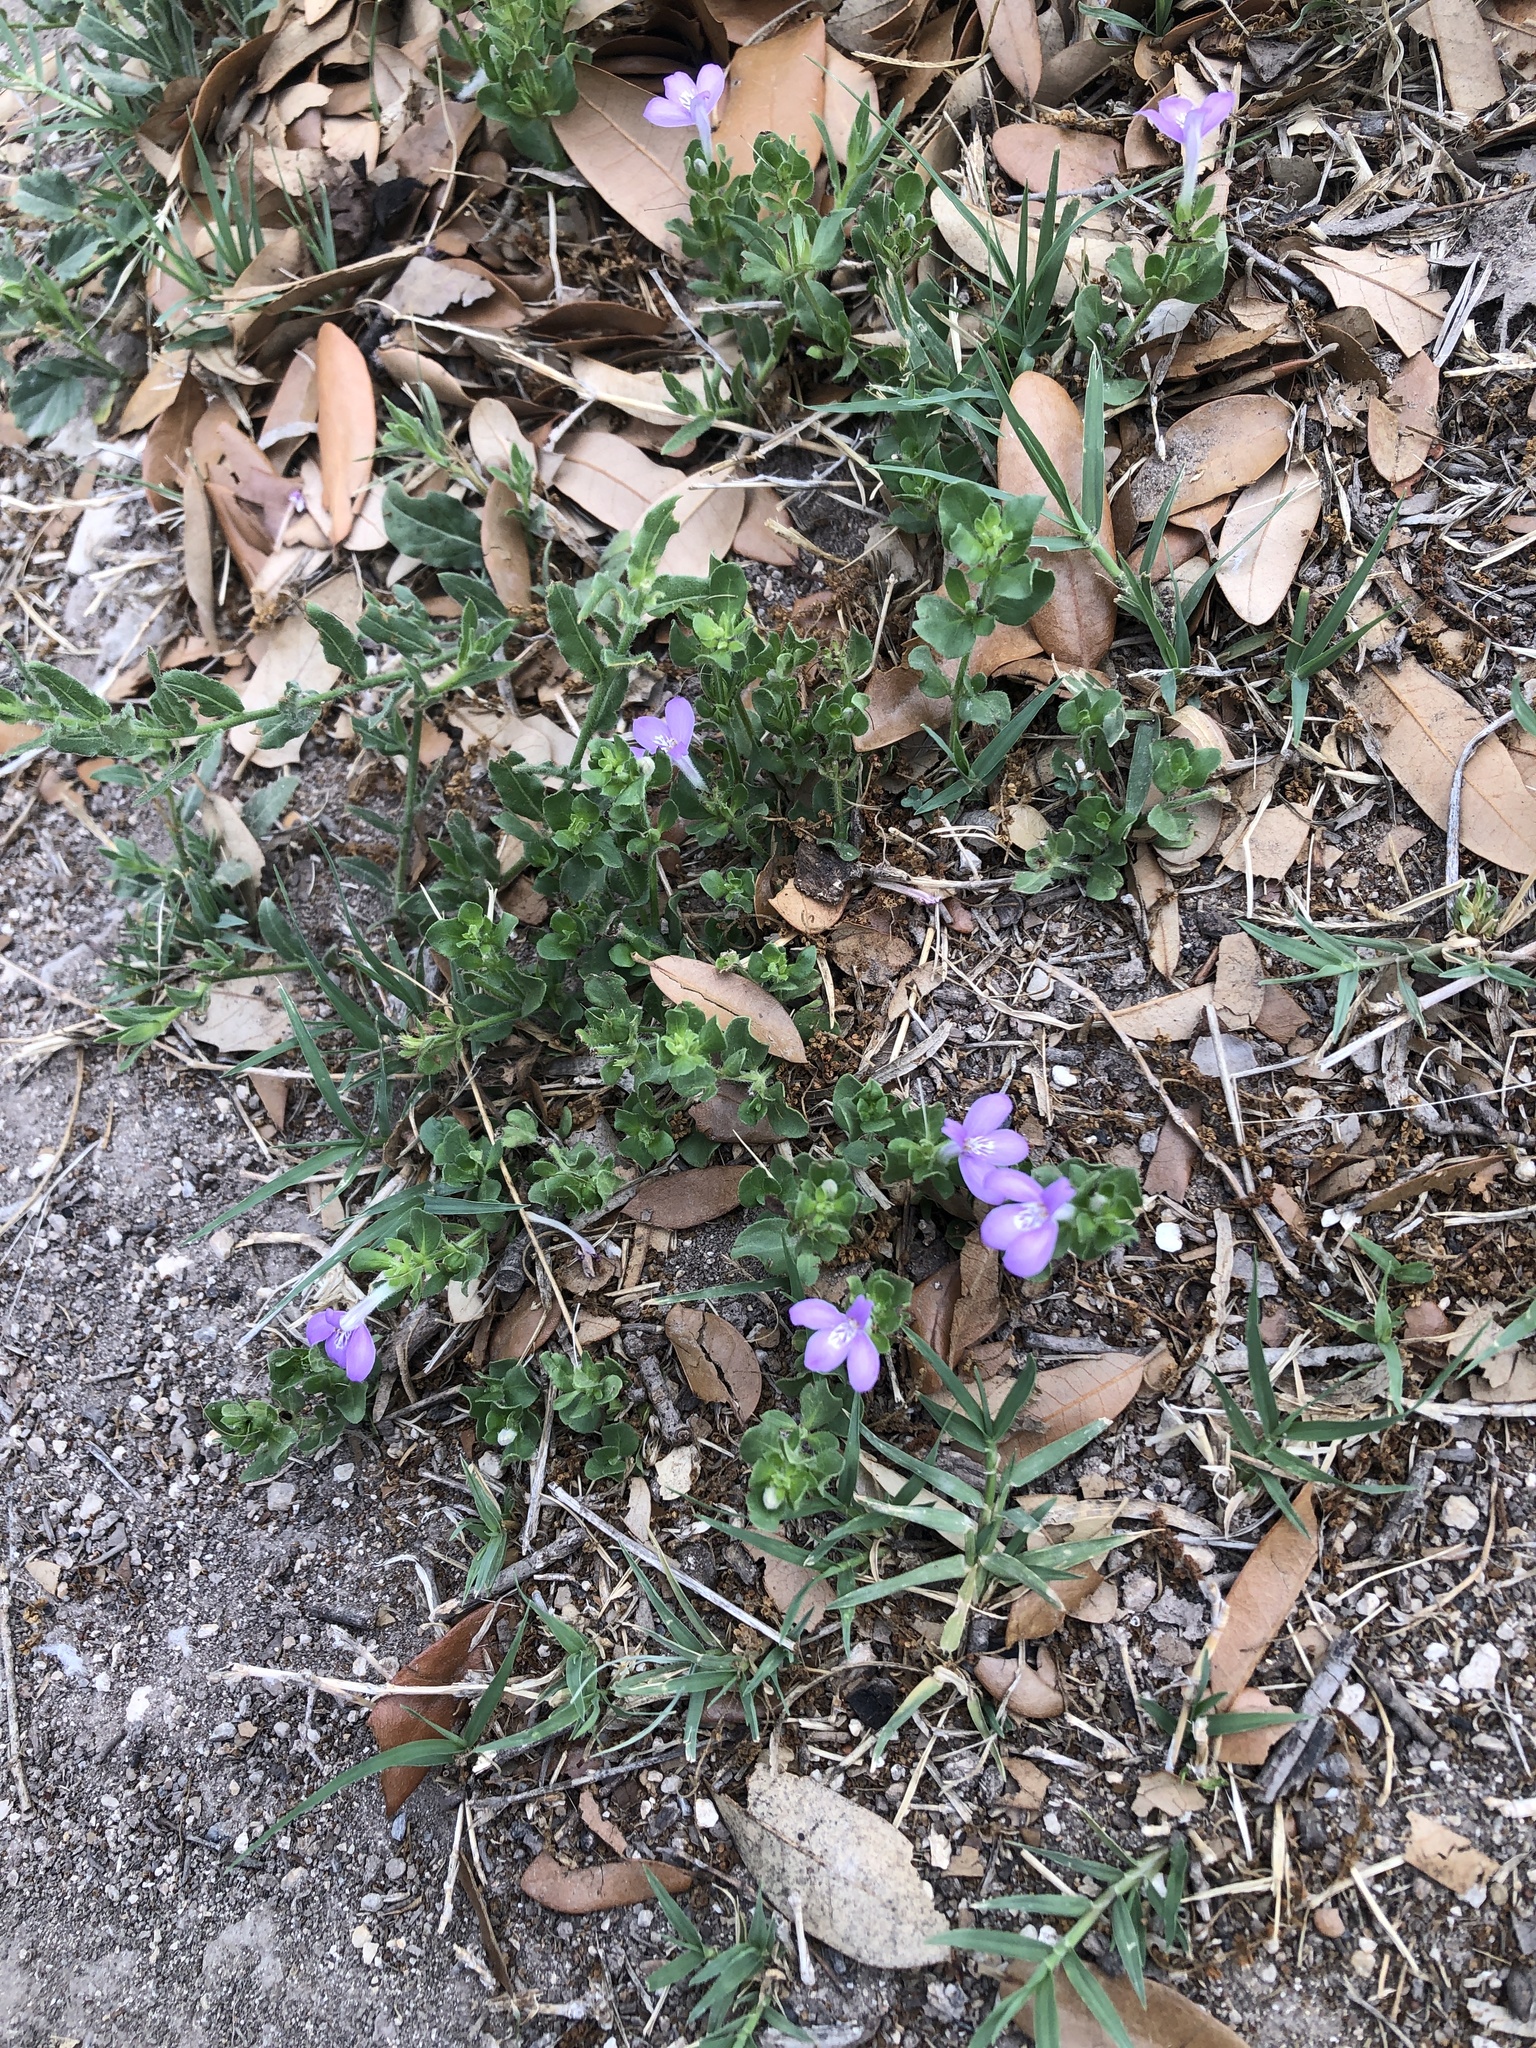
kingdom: Plantae
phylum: Tracheophyta
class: Magnoliopsida
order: Lamiales
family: Acanthaceae
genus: Justicia
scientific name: Justicia pilosella
